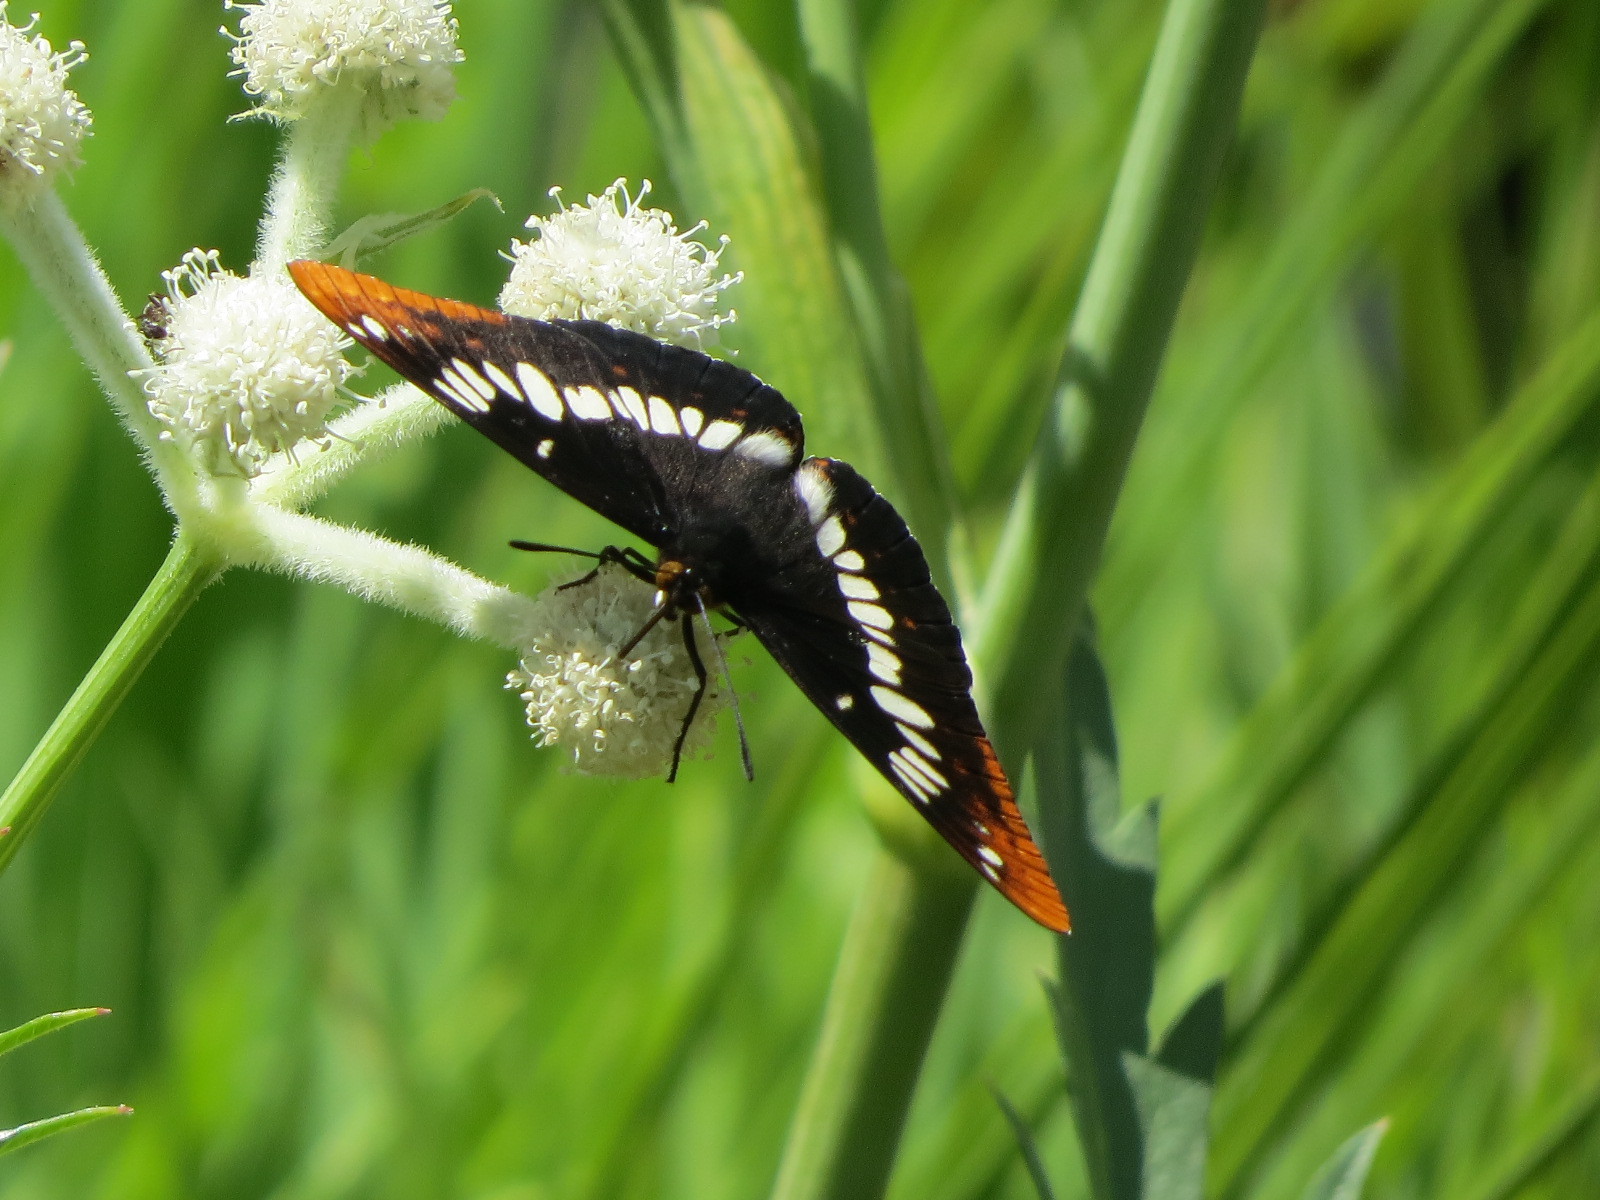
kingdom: Animalia
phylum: Arthropoda
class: Insecta
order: Lepidoptera
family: Nymphalidae
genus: Limenitis
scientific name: Limenitis lorquini
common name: Lorquin's admiral
